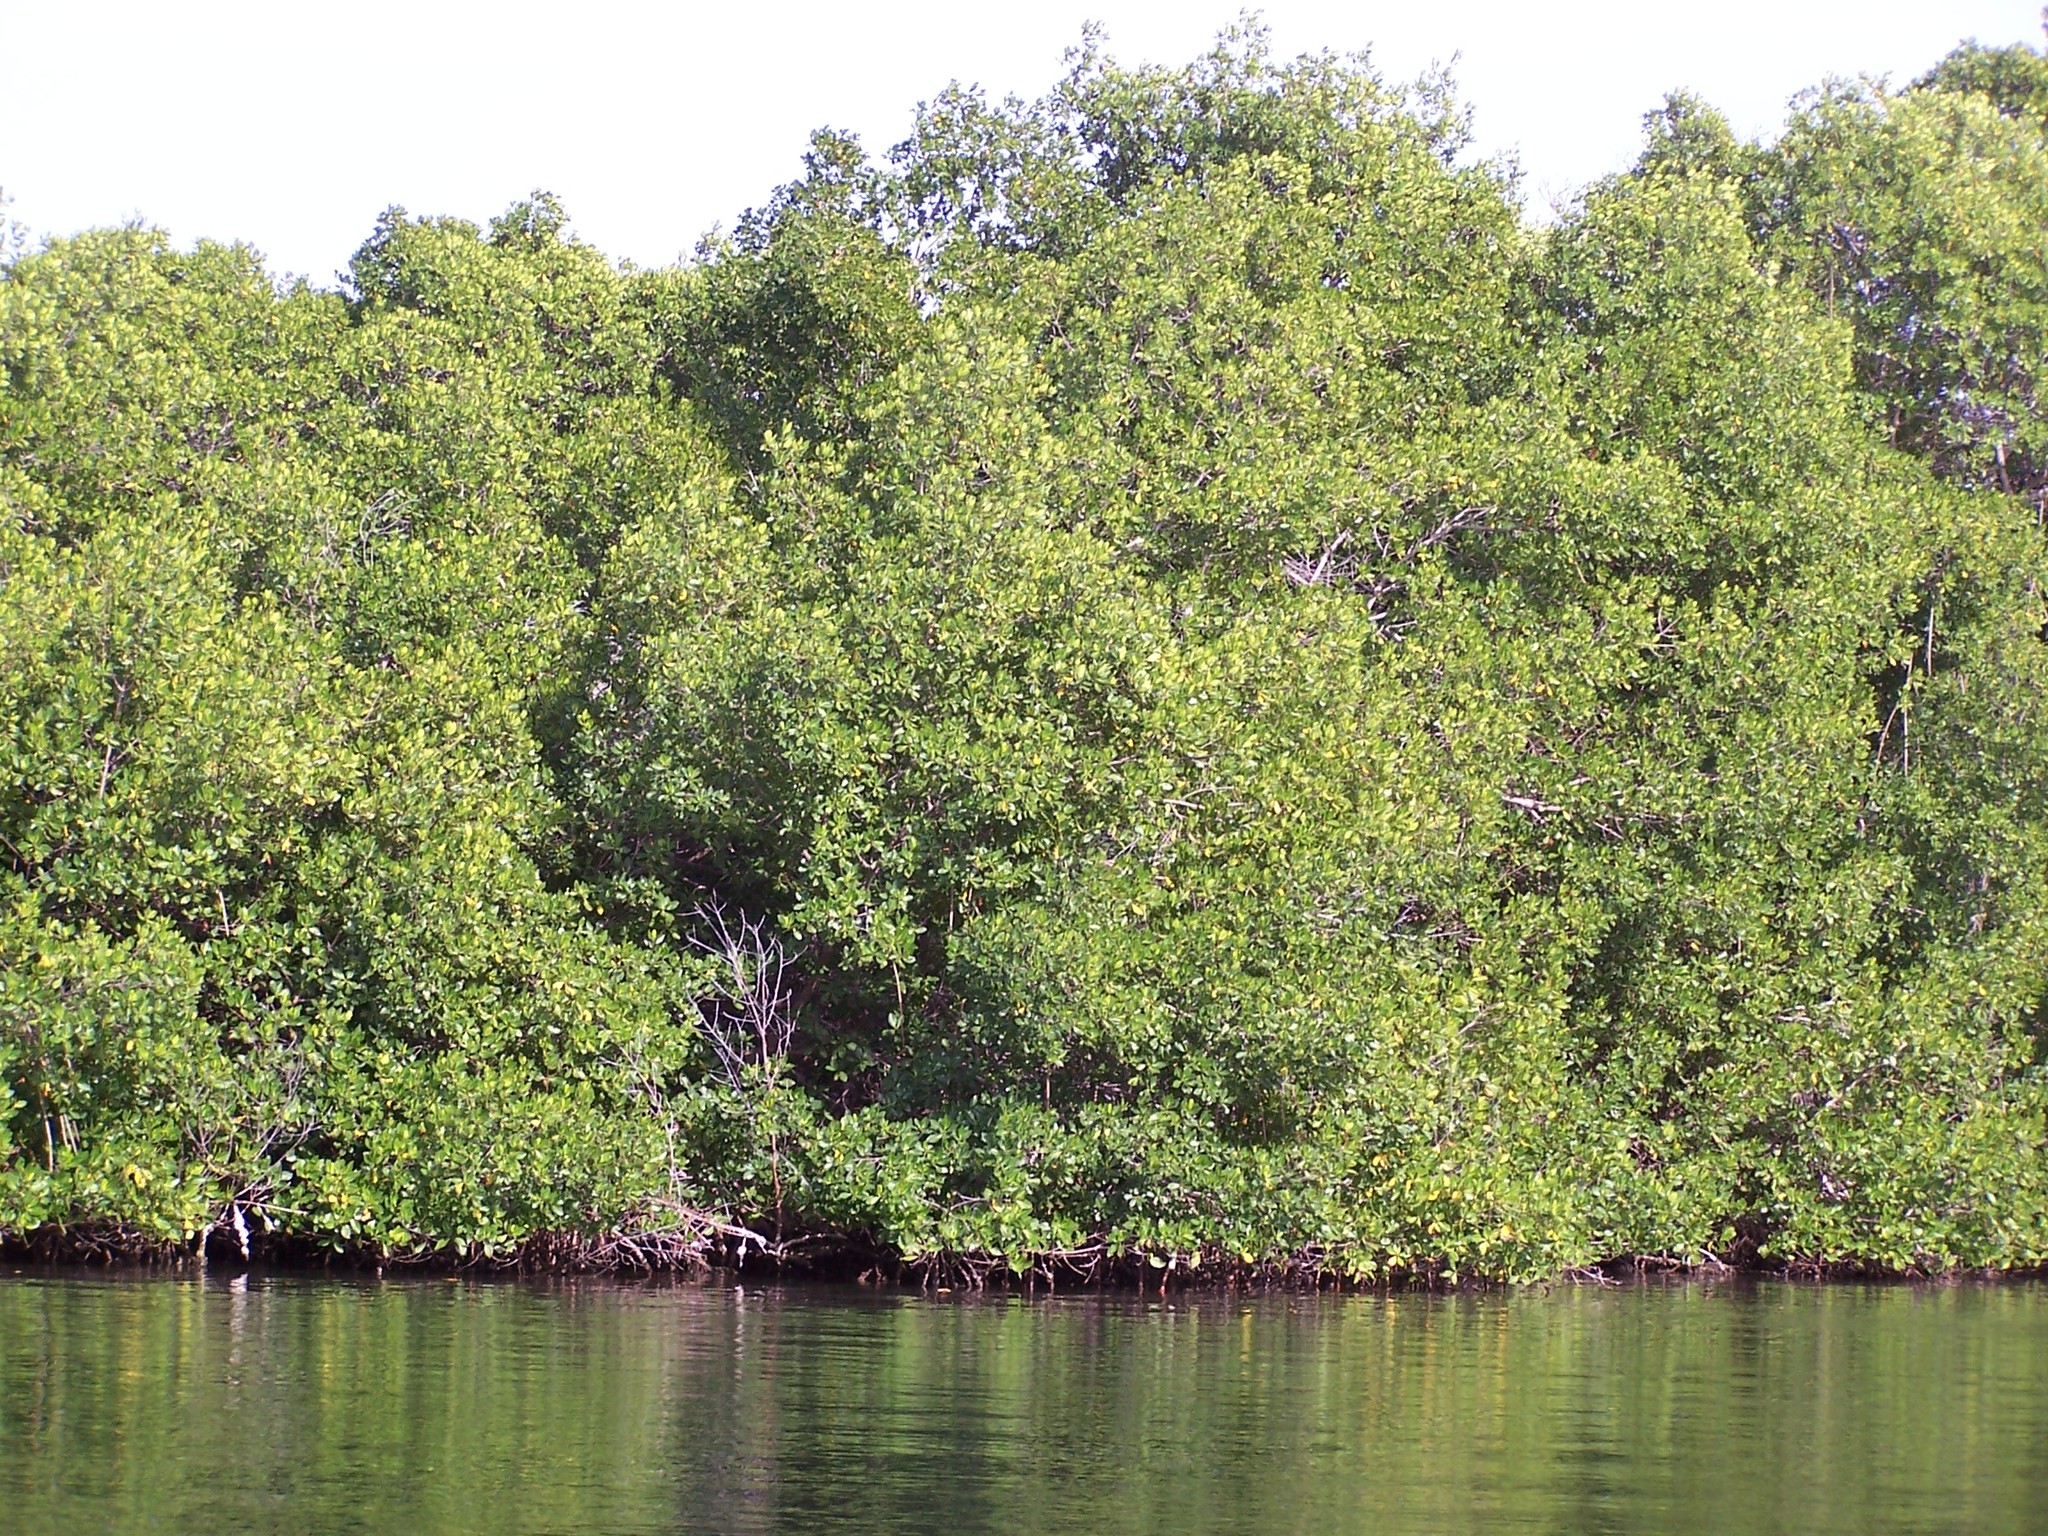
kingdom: Plantae
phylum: Tracheophyta
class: Magnoliopsida
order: Malpighiales
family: Rhizophoraceae
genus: Rhizophora
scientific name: Rhizophora mangle
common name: Red mangrove
